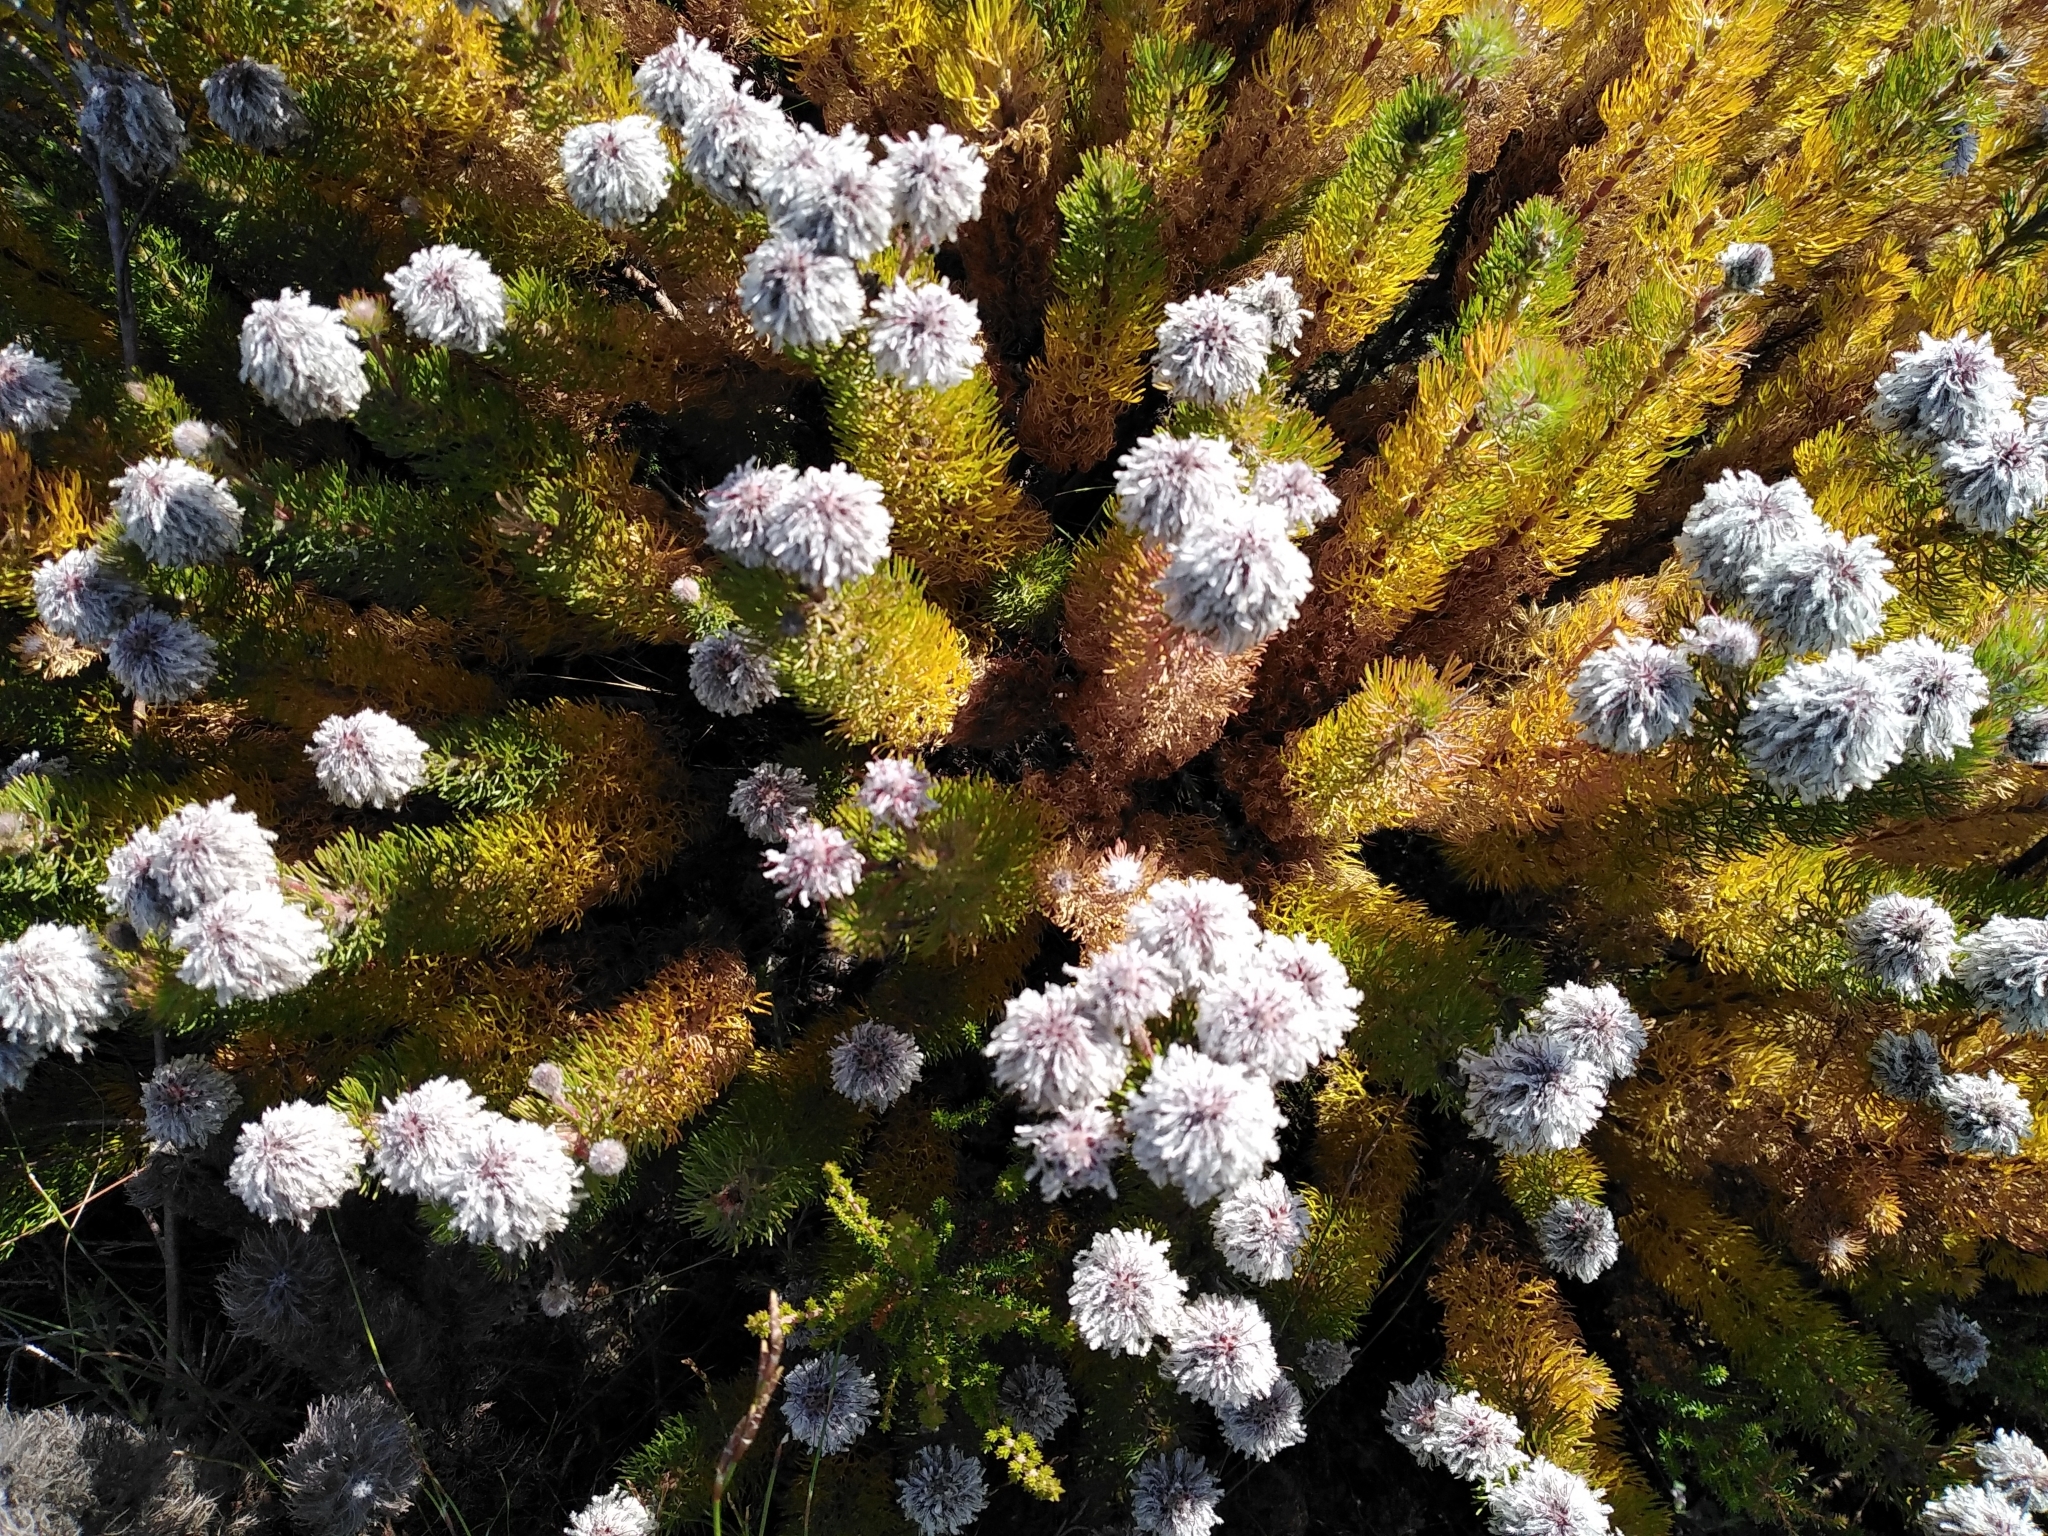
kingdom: Plantae
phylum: Tracheophyta
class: Magnoliopsida
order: Proteales
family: Proteaceae
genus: Serruria
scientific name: Serruria brownii
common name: Bottlebrush spiderhead
